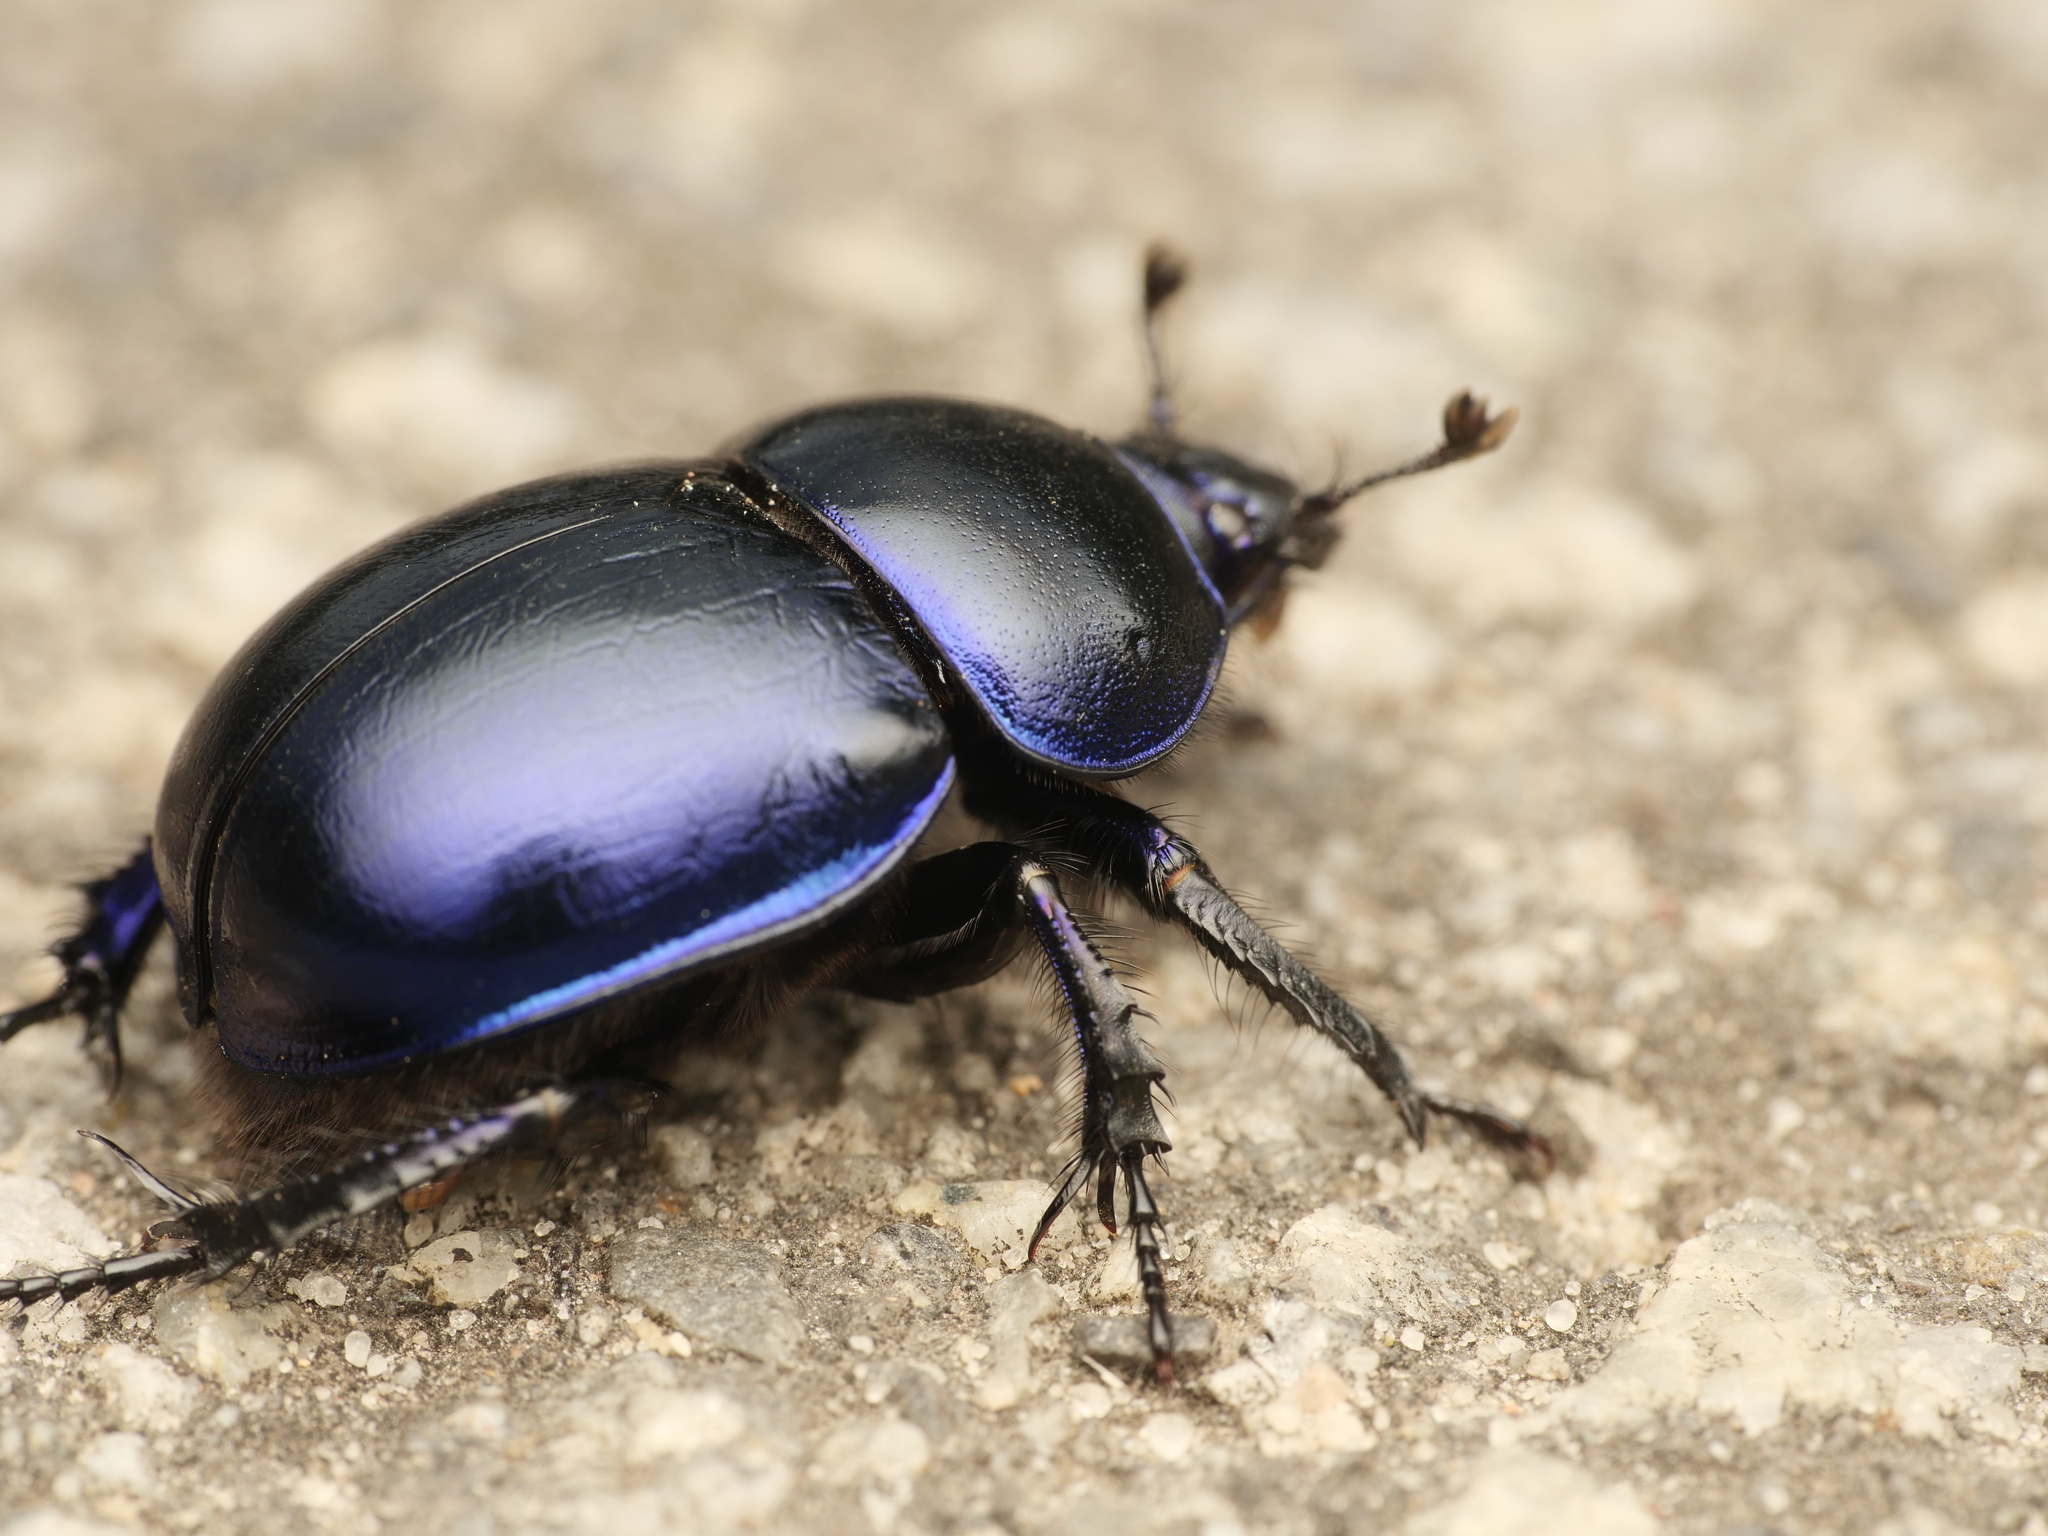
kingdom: Animalia
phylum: Arthropoda
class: Insecta
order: Coleoptera
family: Geotrupidae
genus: Trypocopris
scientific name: Trypocopris vernalis
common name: Spring dumbledor
